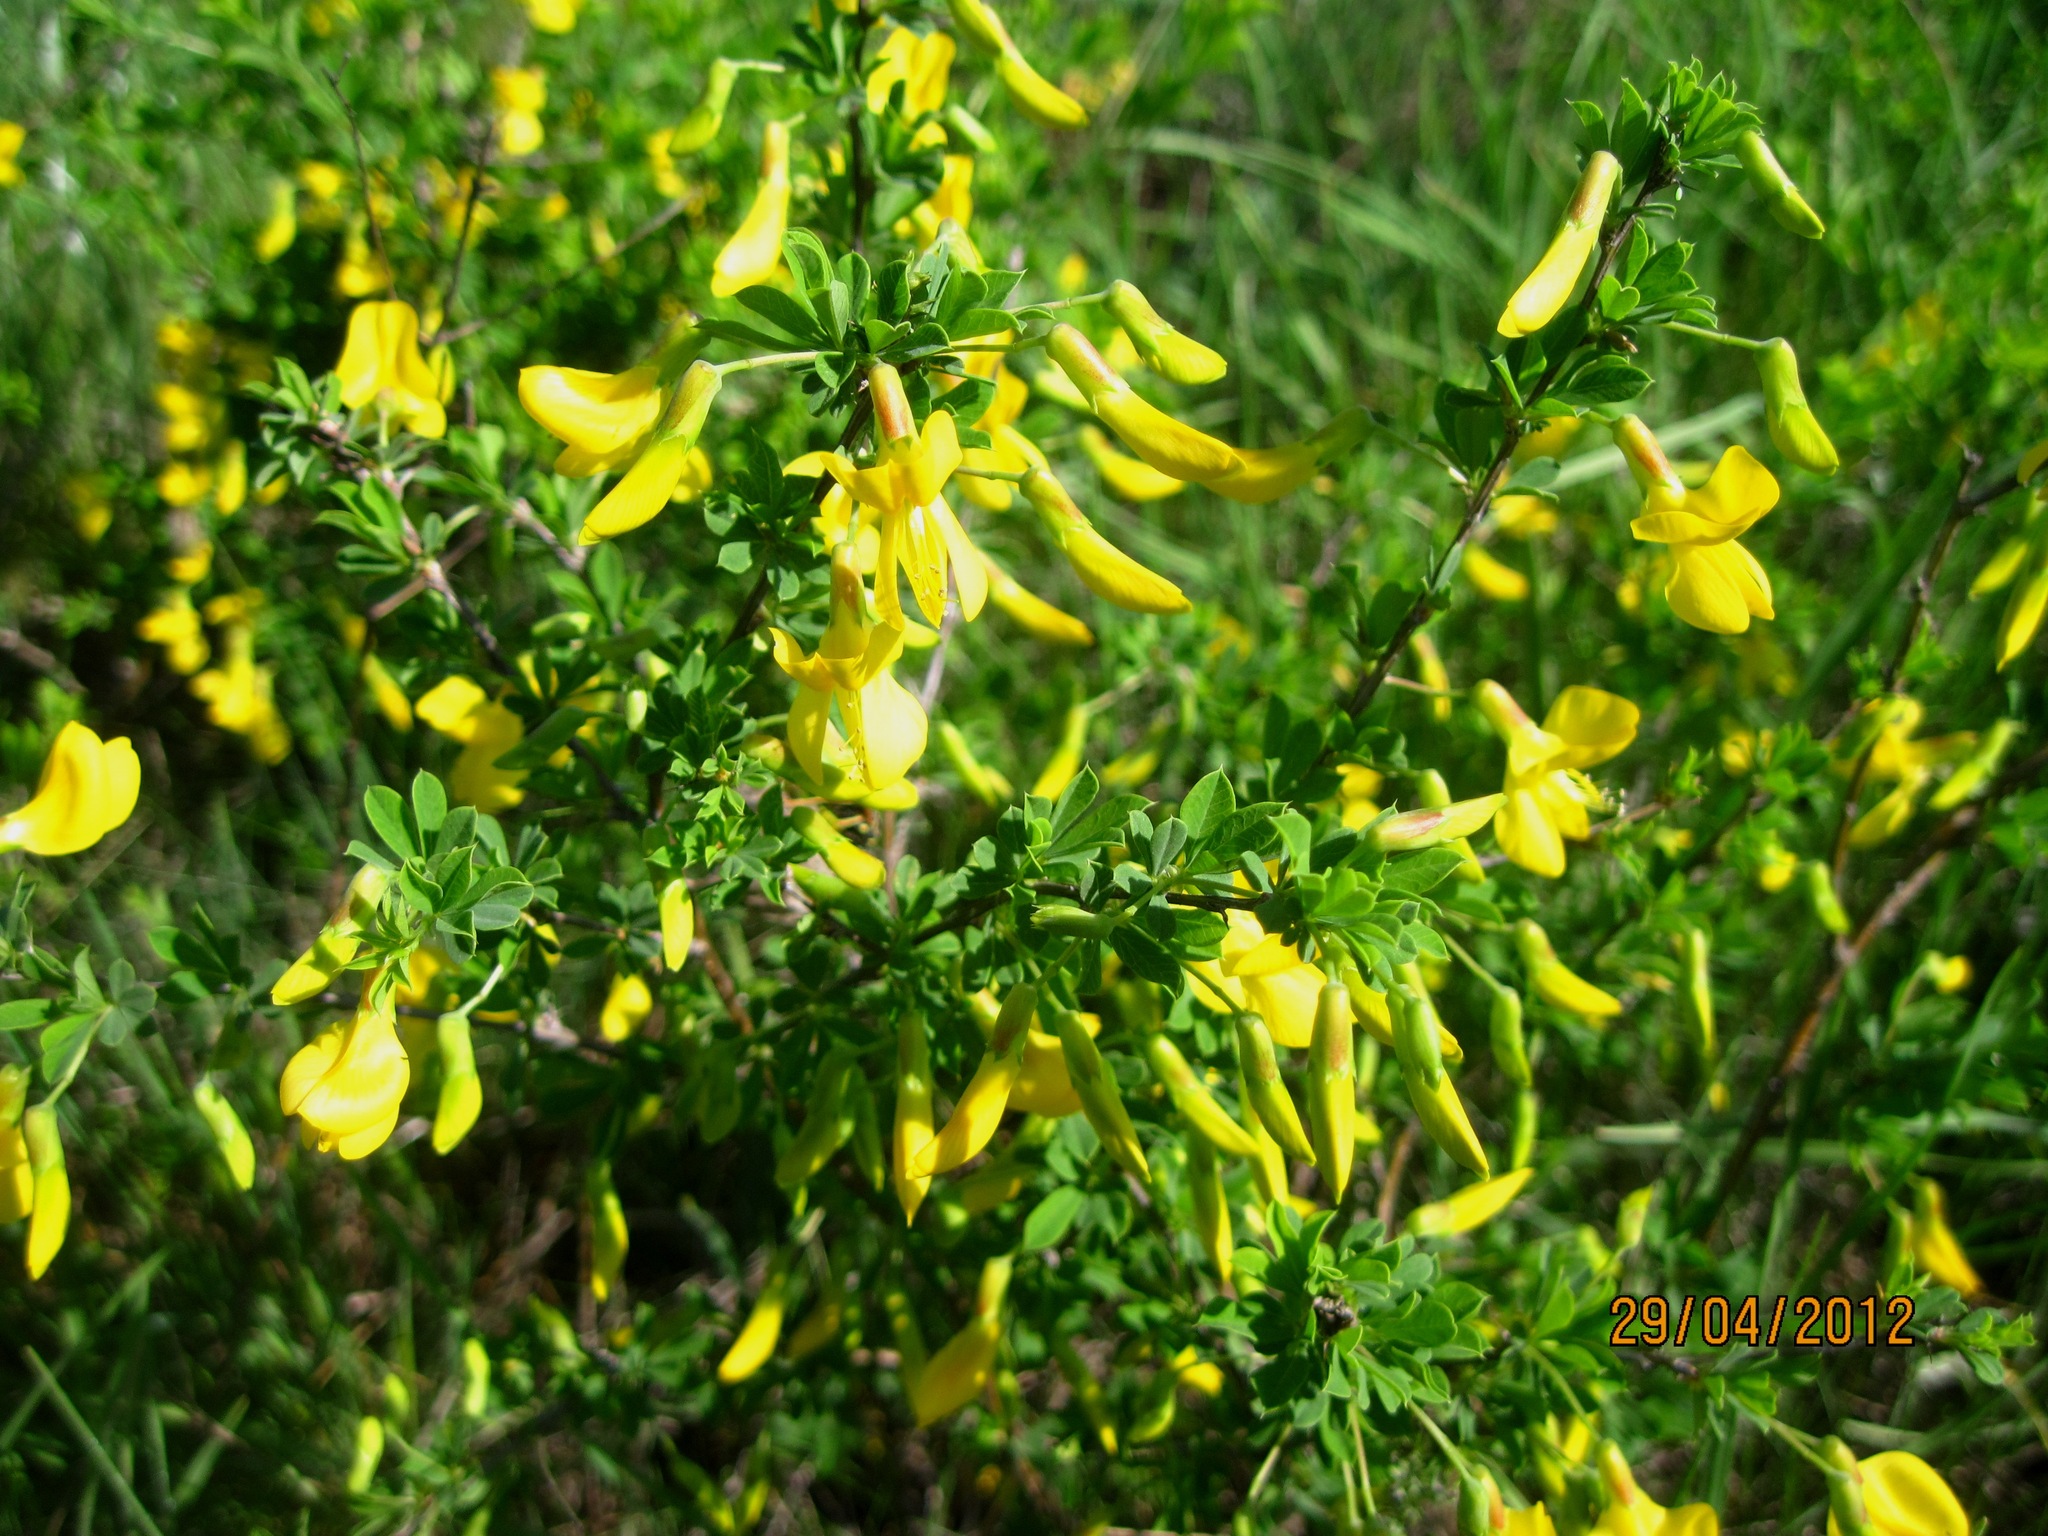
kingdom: Plantae
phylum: Tracheophyta
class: Magnoliopsida
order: Fabales
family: Fabaceae
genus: Caragana
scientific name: Caragana frutex
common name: Russian peashrub
